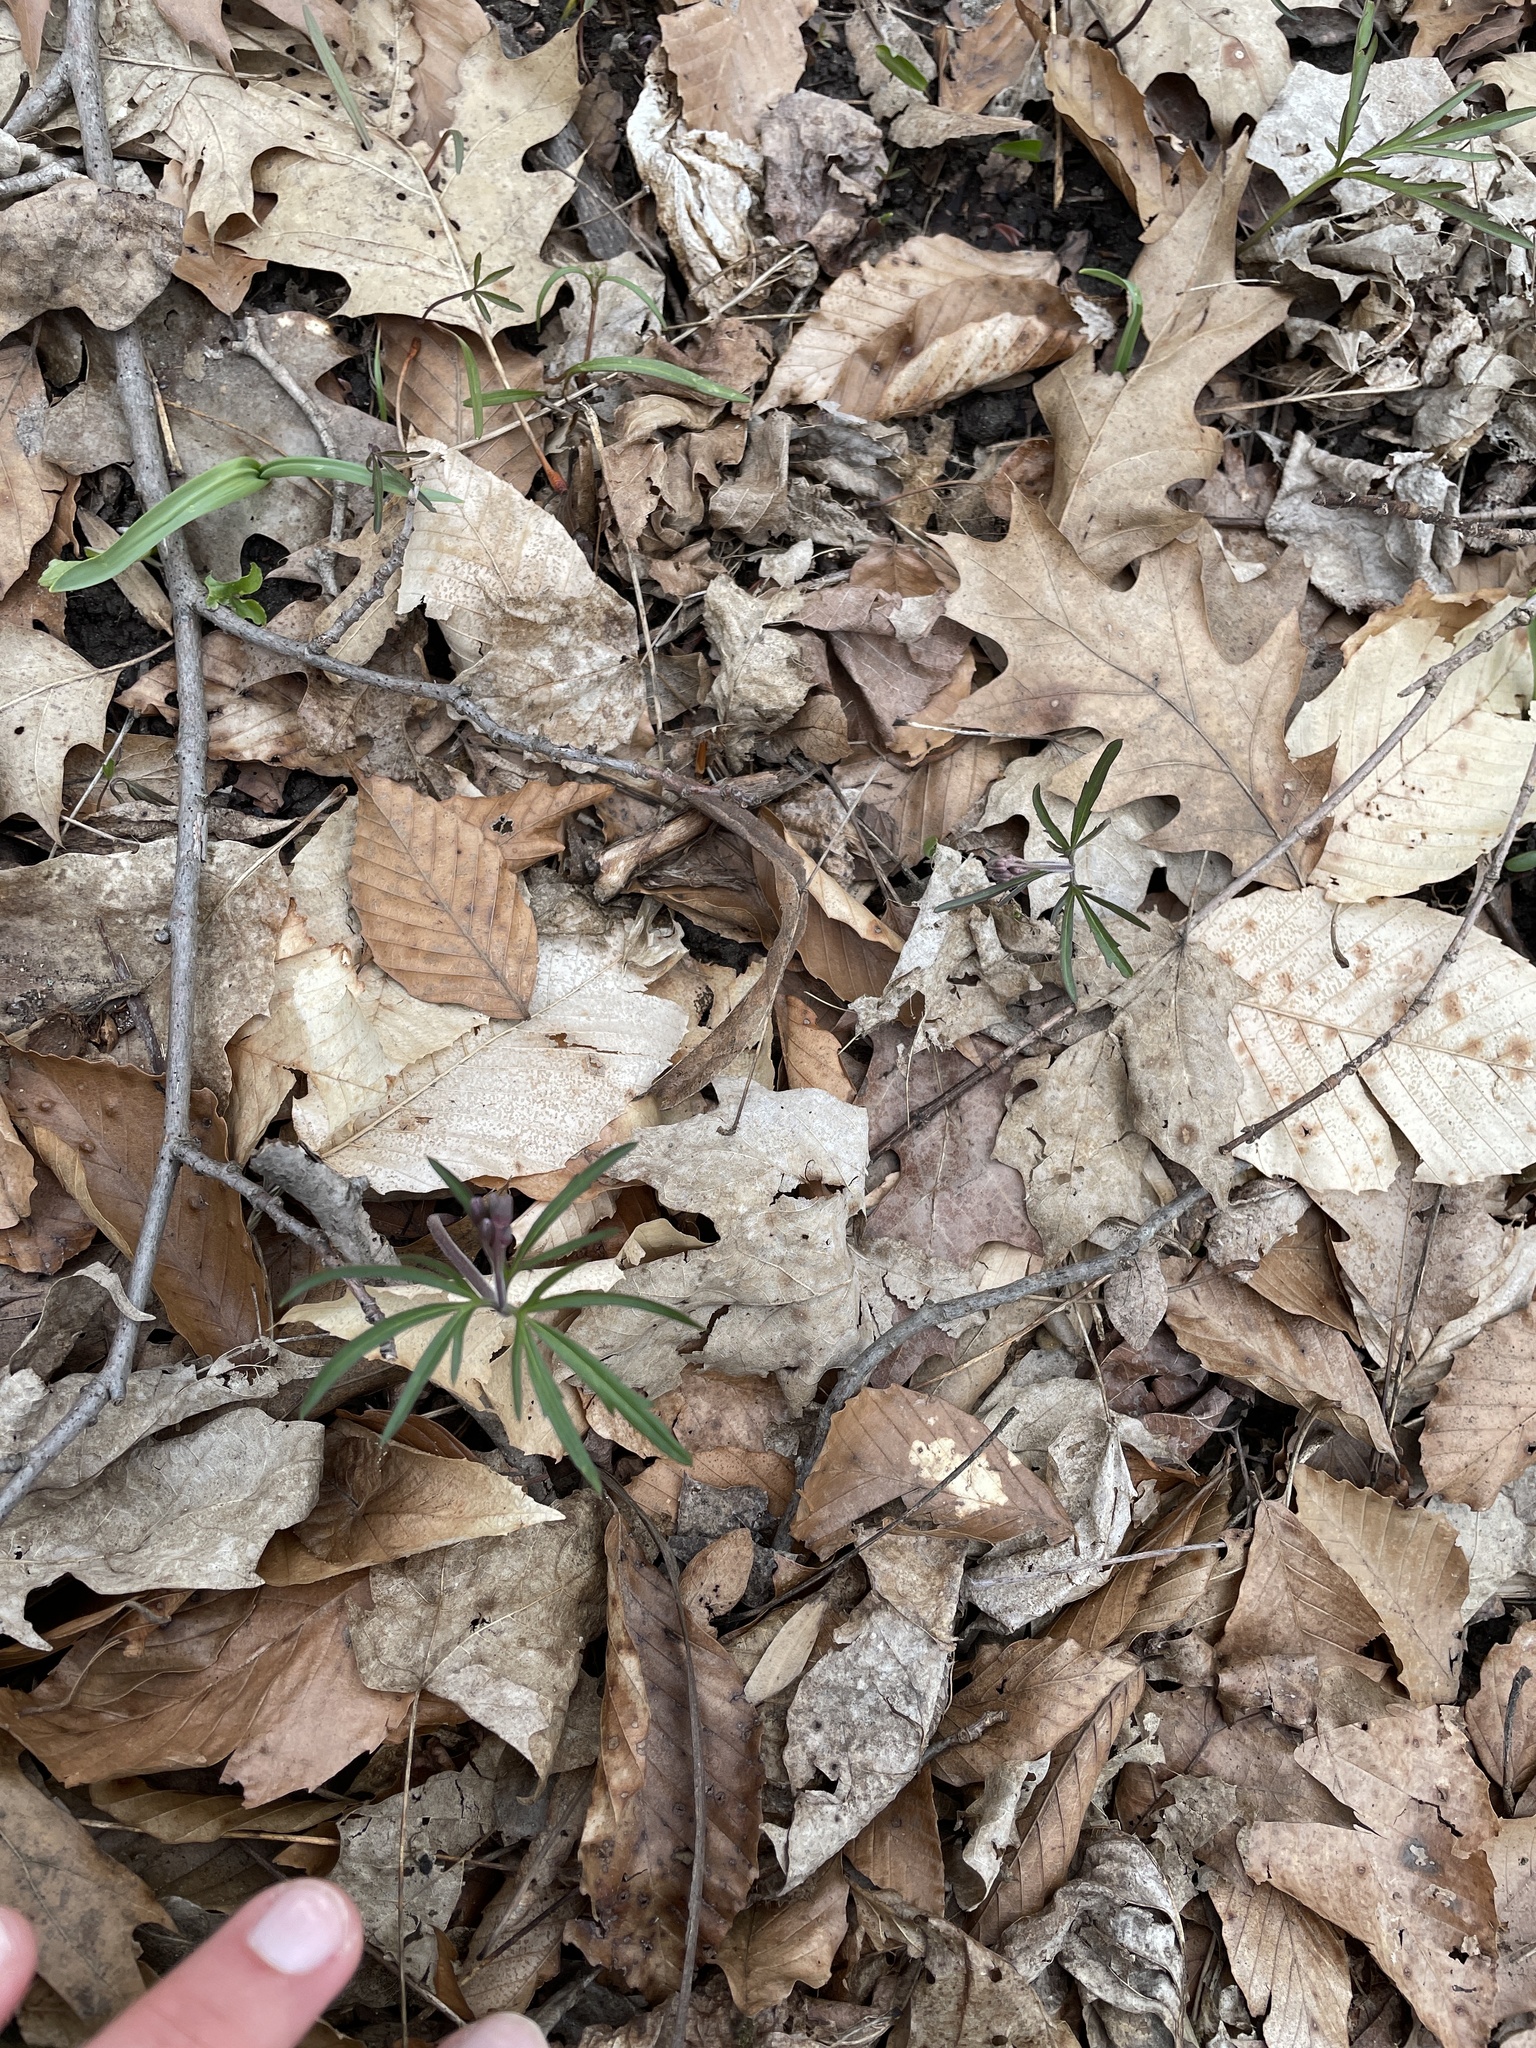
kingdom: Plantae
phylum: Tracheophyta
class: Magnoliopsida
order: Brassicales
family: Brassicaceae
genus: Cardamine
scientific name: Cardamine concatenata
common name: Cut-leaf toothcup
